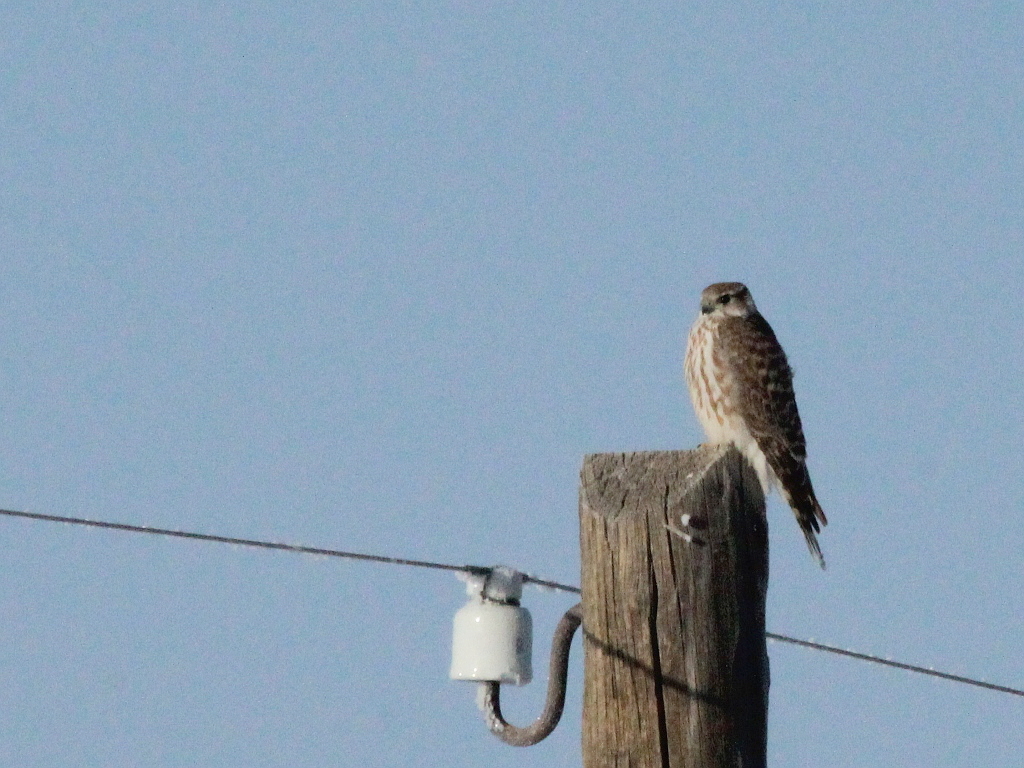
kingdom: Animalia
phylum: Chordata
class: Aves
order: Falconiformes
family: Falconidae
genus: Falco
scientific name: Falco columbarius
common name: Merlin
